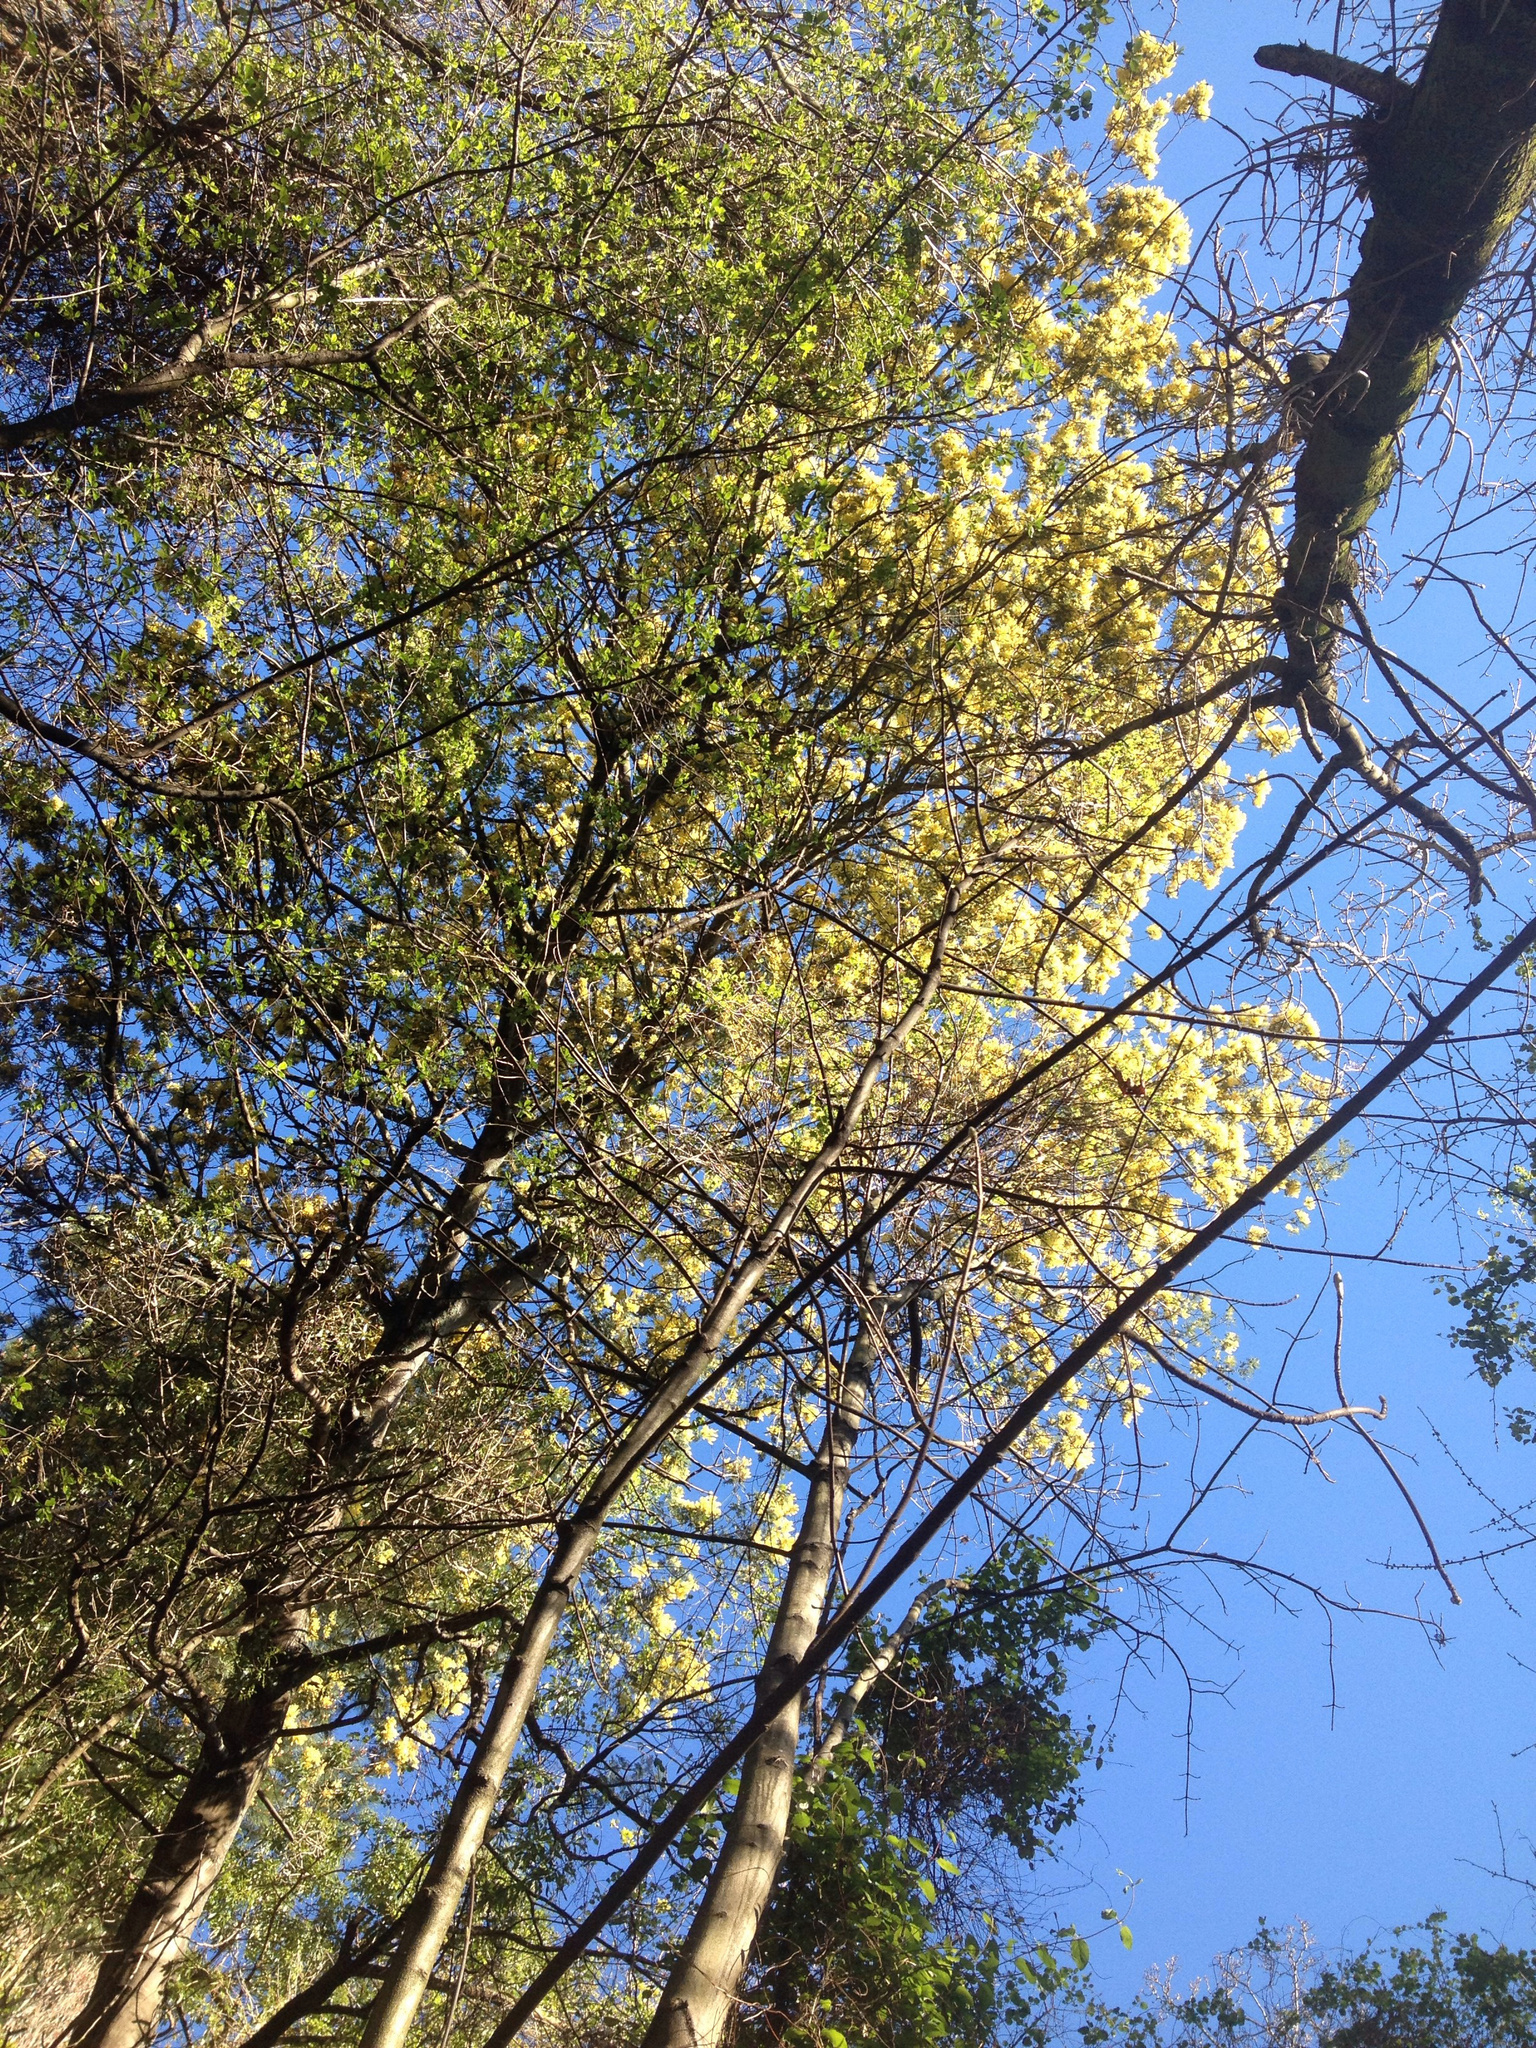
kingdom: Plantae
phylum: Tracheophyta
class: Magnoliopsida
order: Fabales
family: Fabaceae
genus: Acacia
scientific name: Acacia dealbata
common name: Silver wattle
